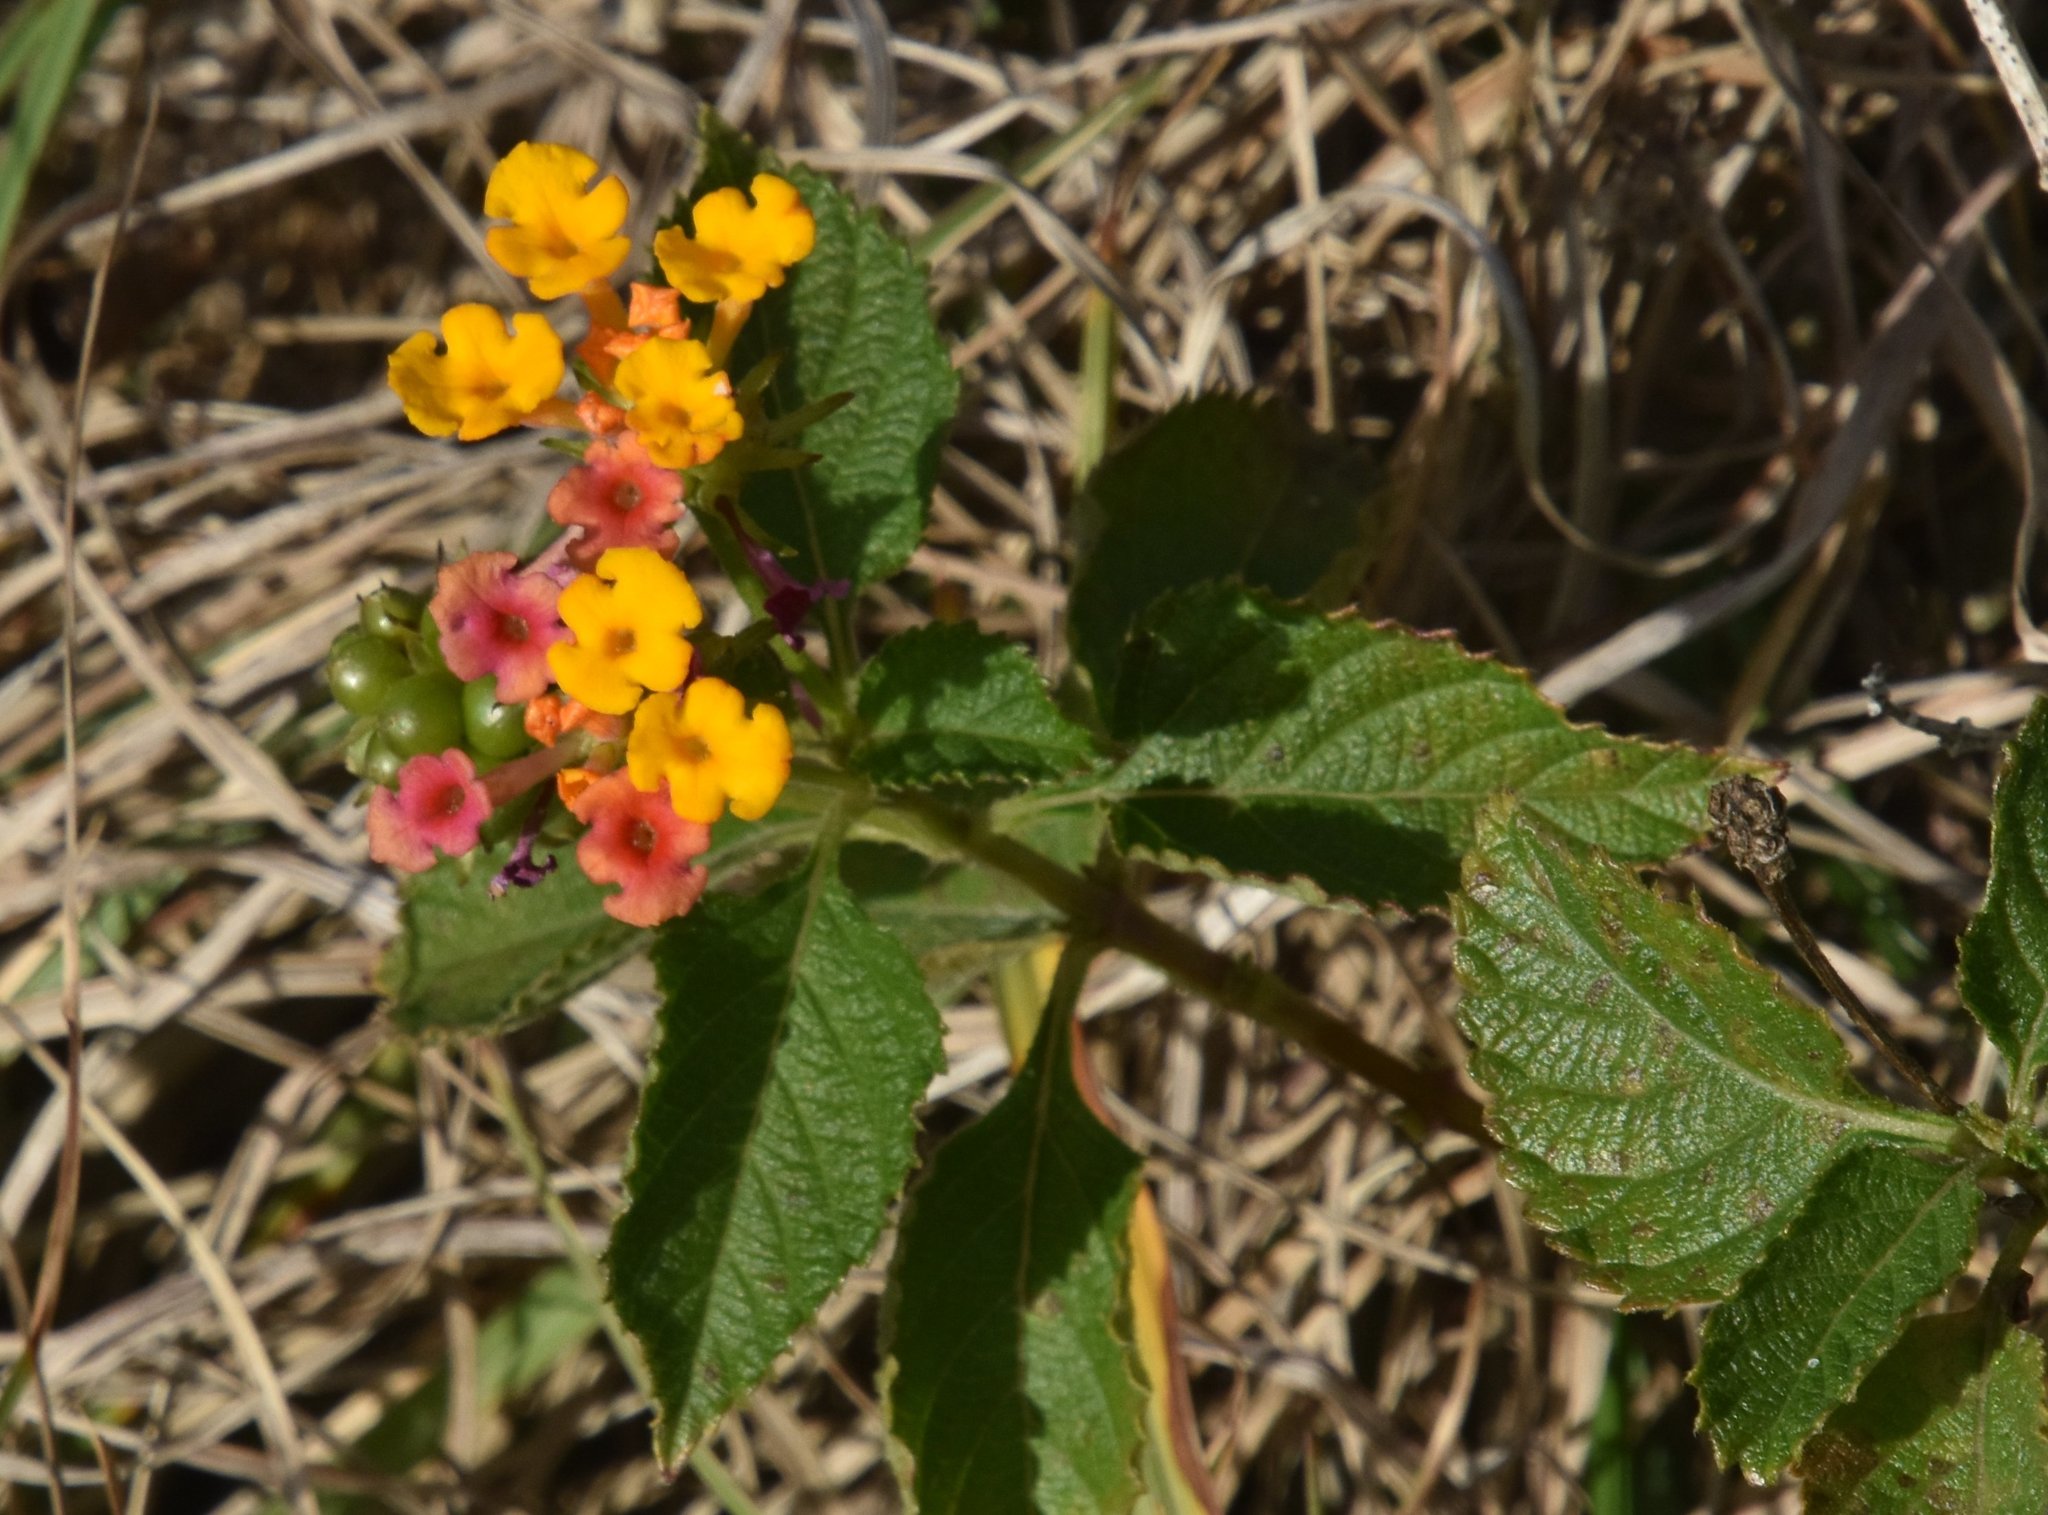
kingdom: Plantae
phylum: Tracheophyta
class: Magnoliopsida
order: Lamiales
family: Verbenaceae
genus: Lantana
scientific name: Lantana camara
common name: Lantana
